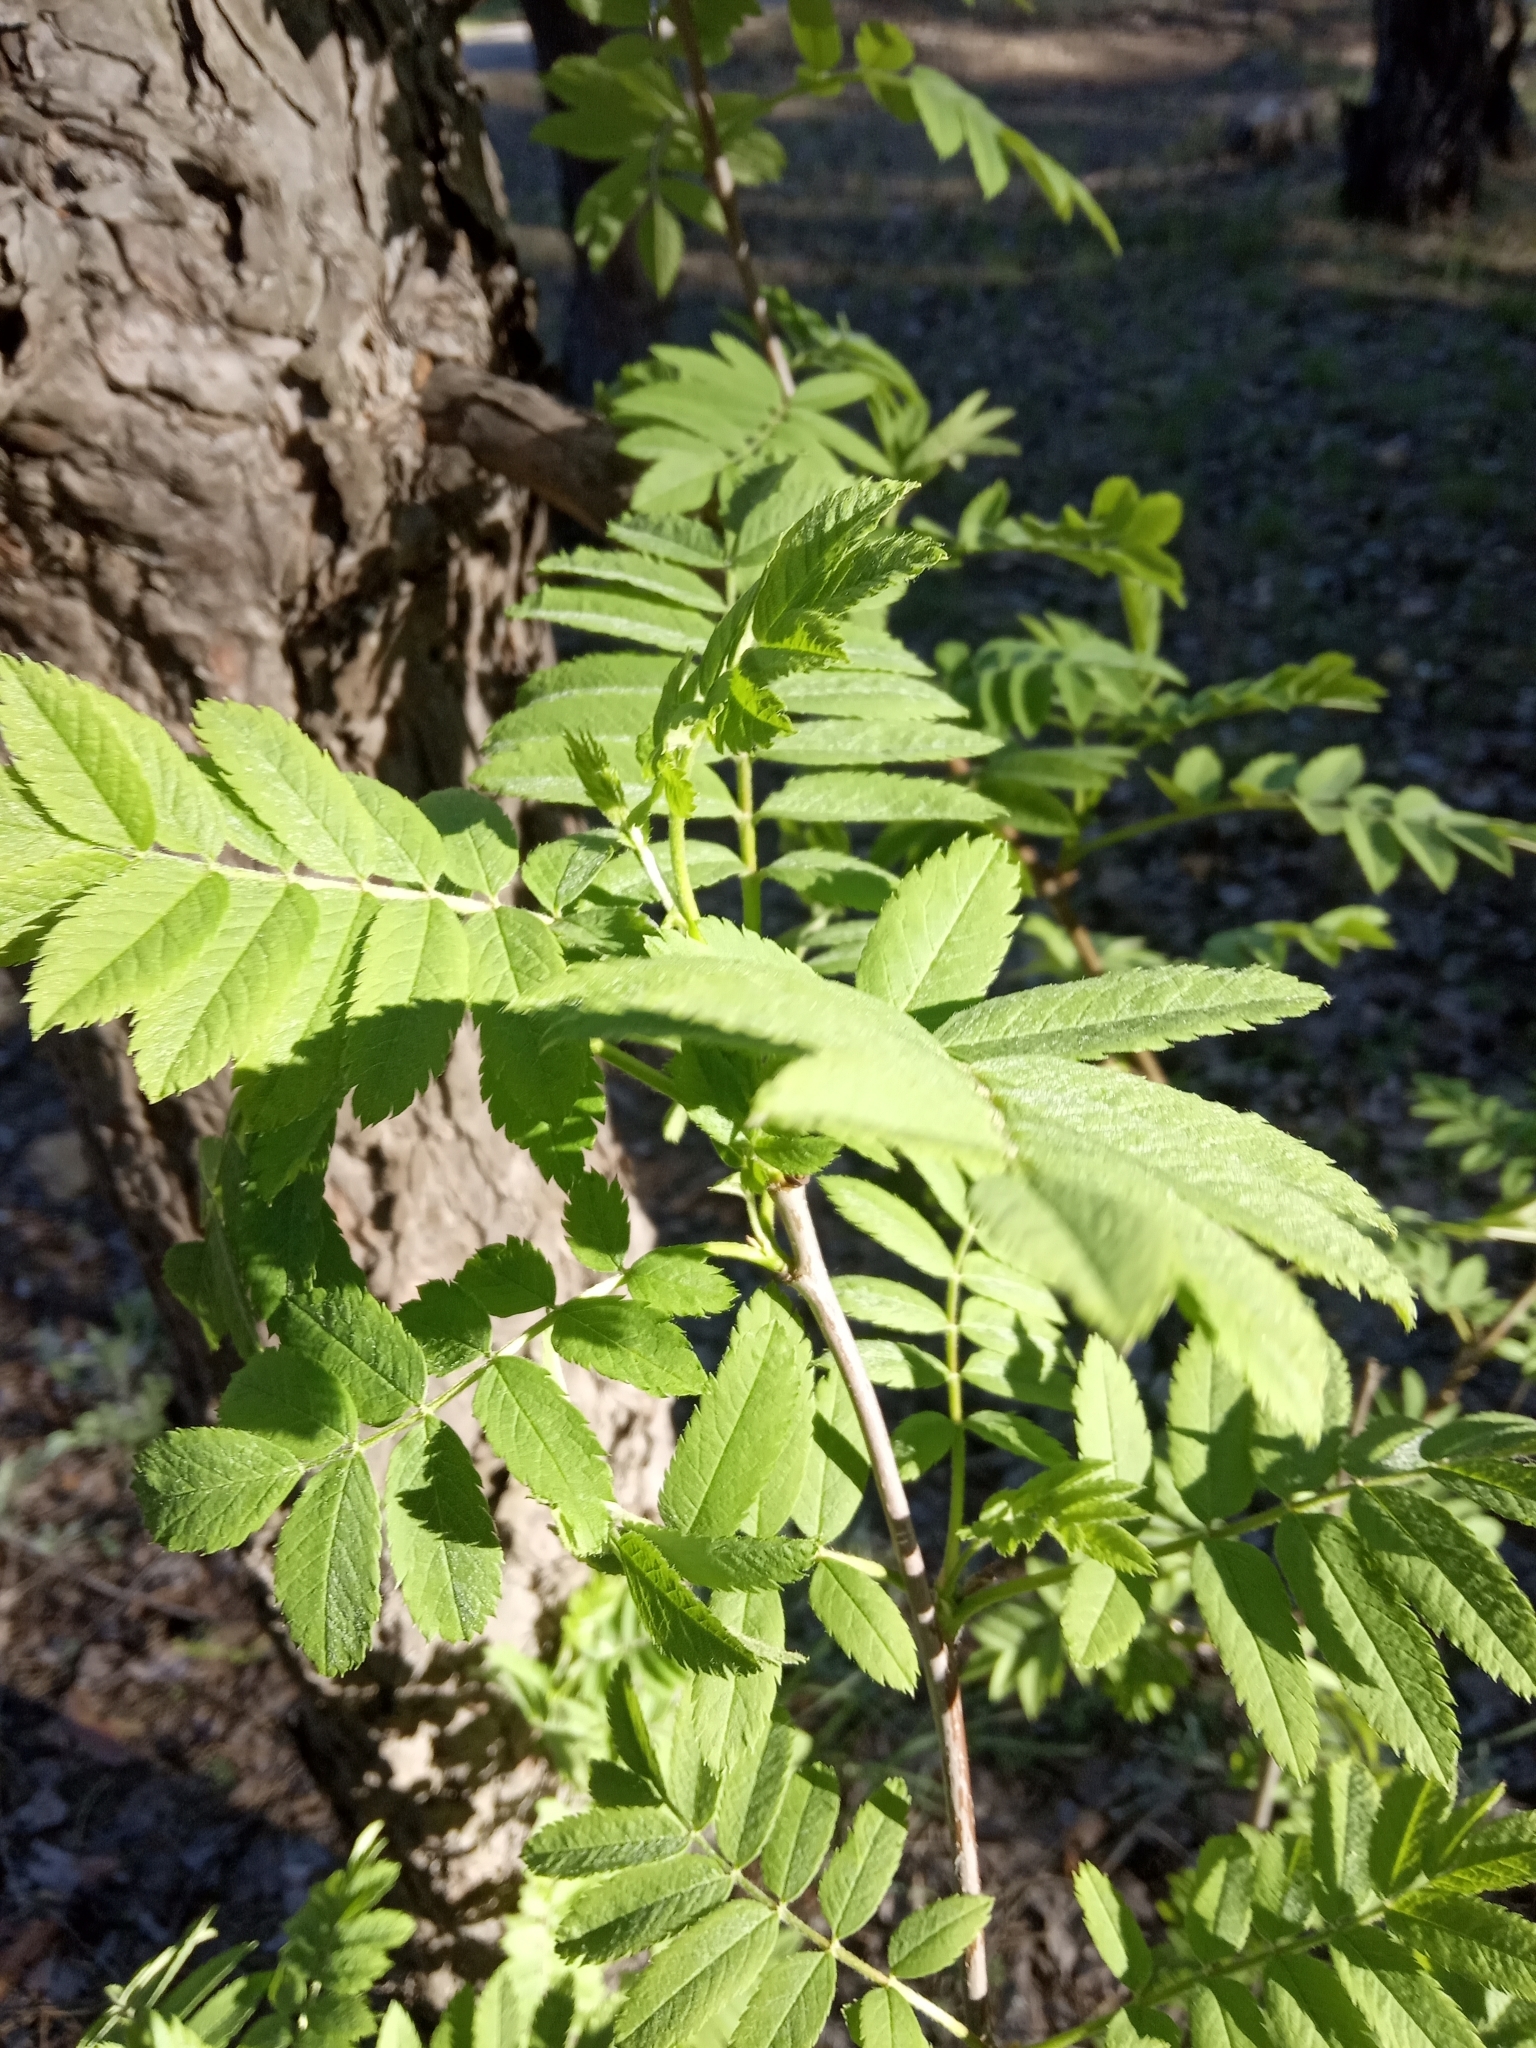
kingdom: Plantae
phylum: Tracheophyta
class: Magnoliopsida
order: Rosales
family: Rosaceae
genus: Sorbus
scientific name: Sorbus aucuparia
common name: Rowan
